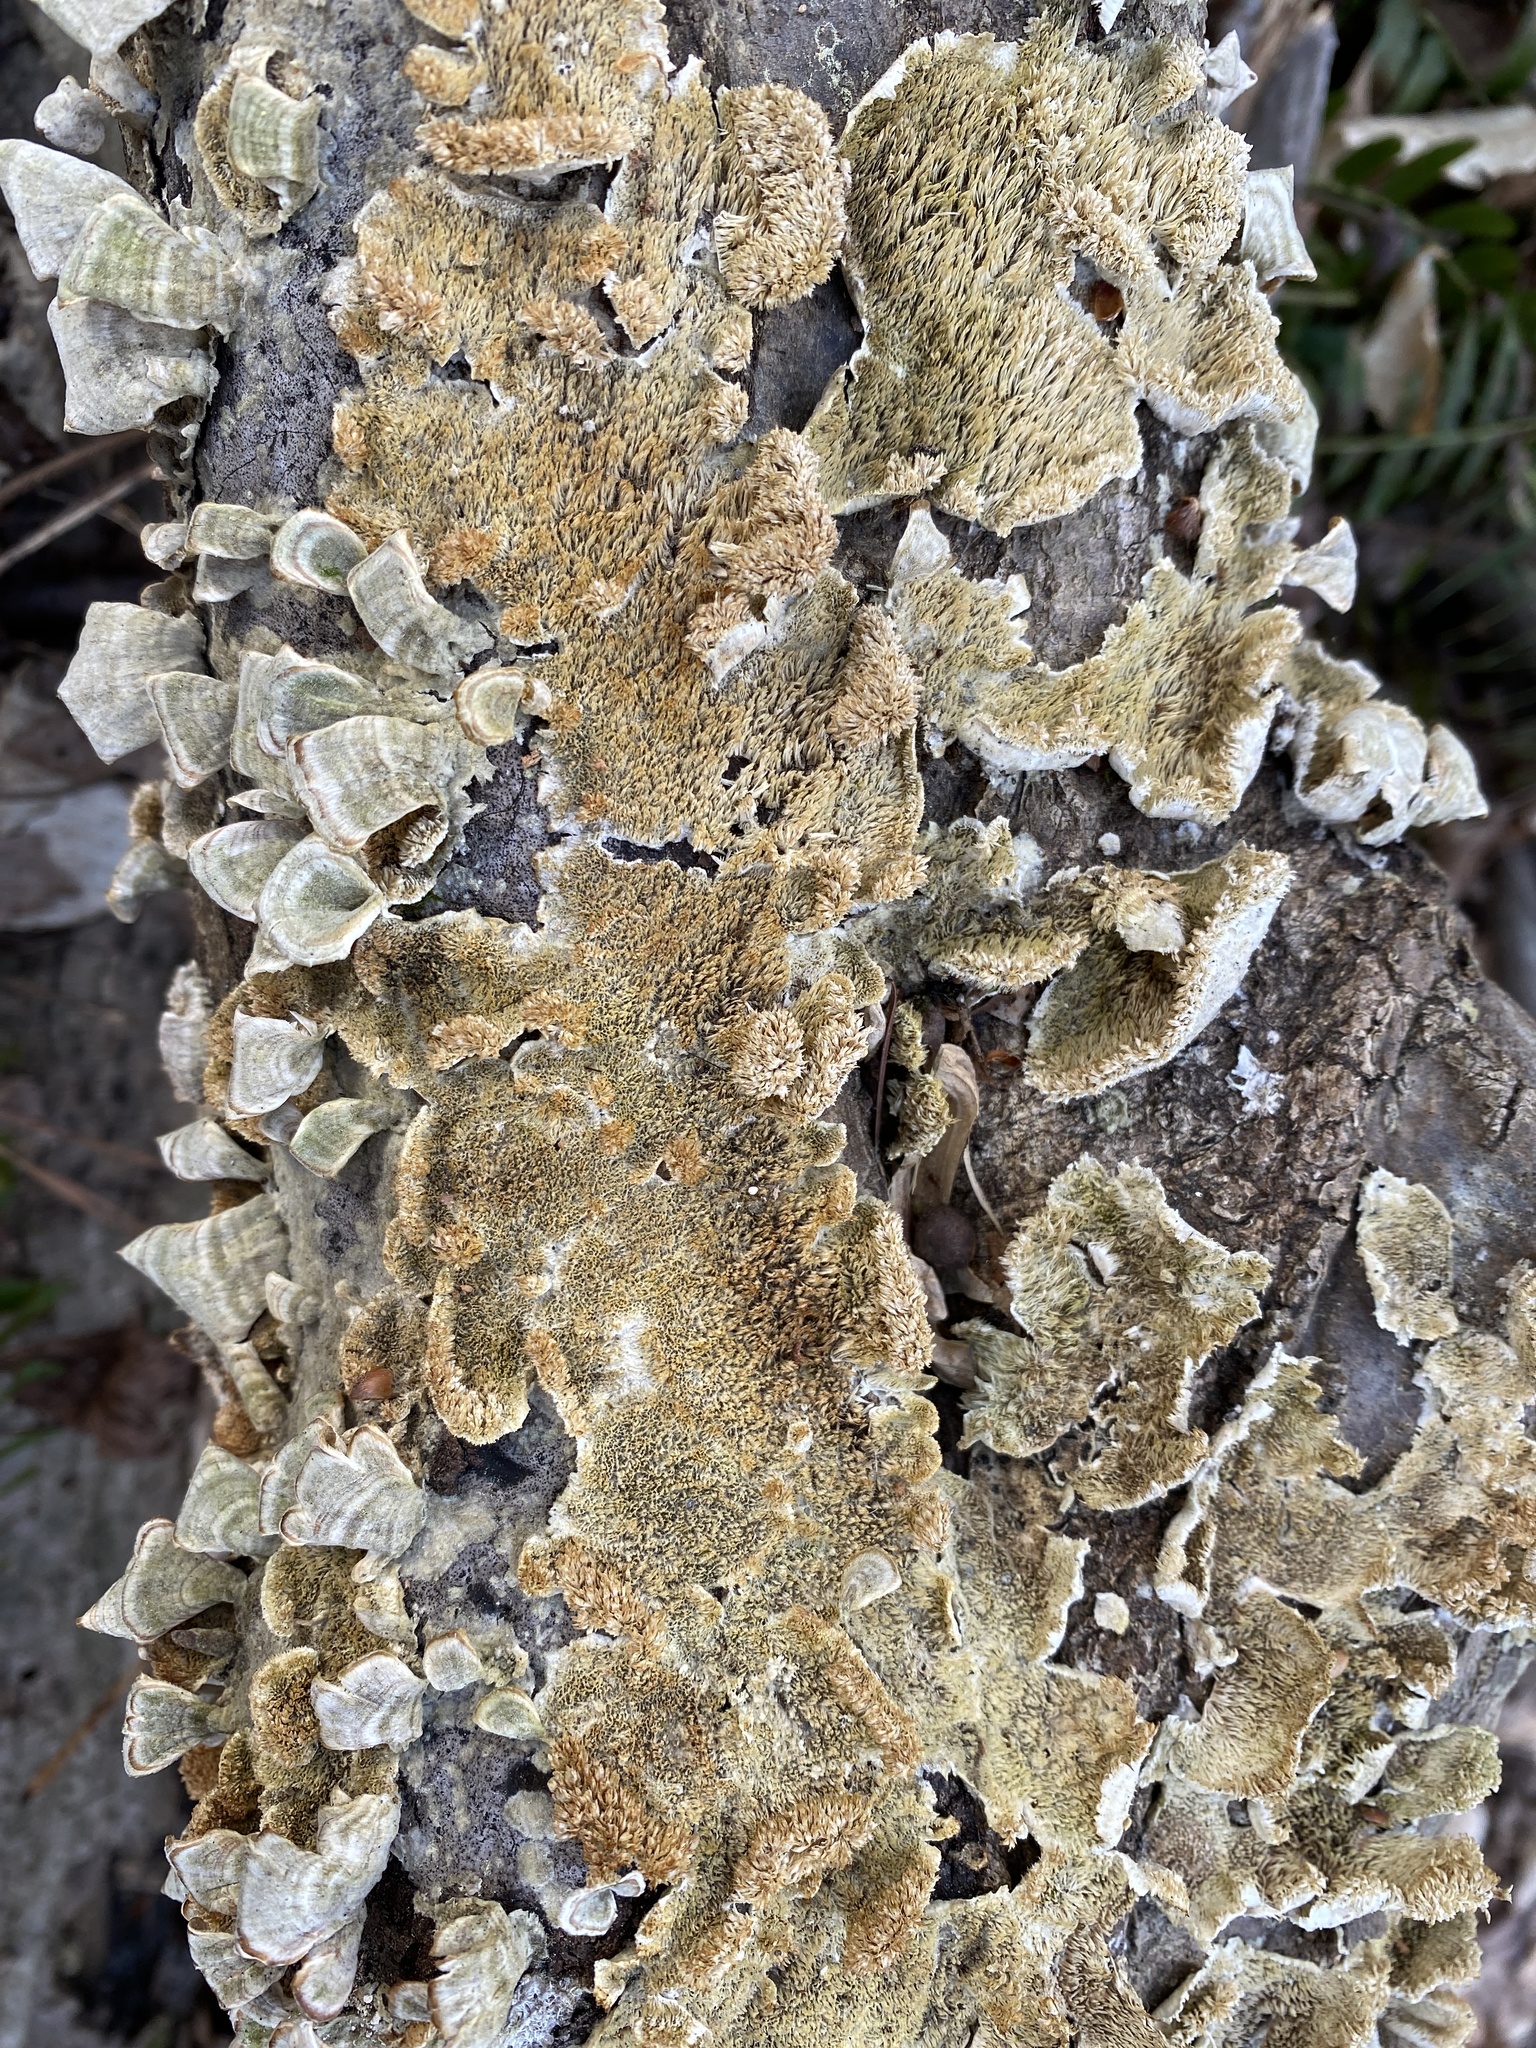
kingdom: Fungi
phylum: Basidiomycota
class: Agaricomycetes
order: Hymenochaetales
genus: Trichaptum
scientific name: Trichaptum biforme
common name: Violet-toothed polypore
